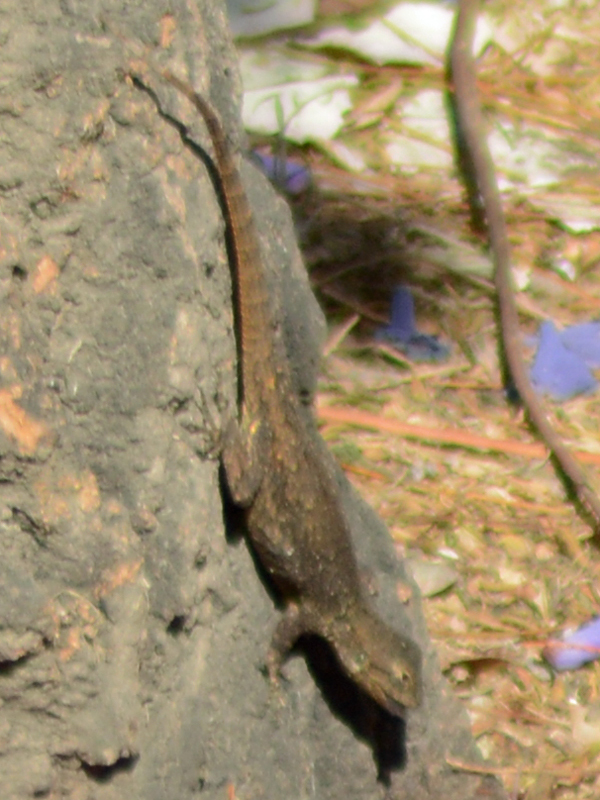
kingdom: Animalia
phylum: Chordata
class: Squamata
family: Phrynosomatidae
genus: Sceloporus
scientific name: Sceloporus grammicus
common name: Mesquite lizard
